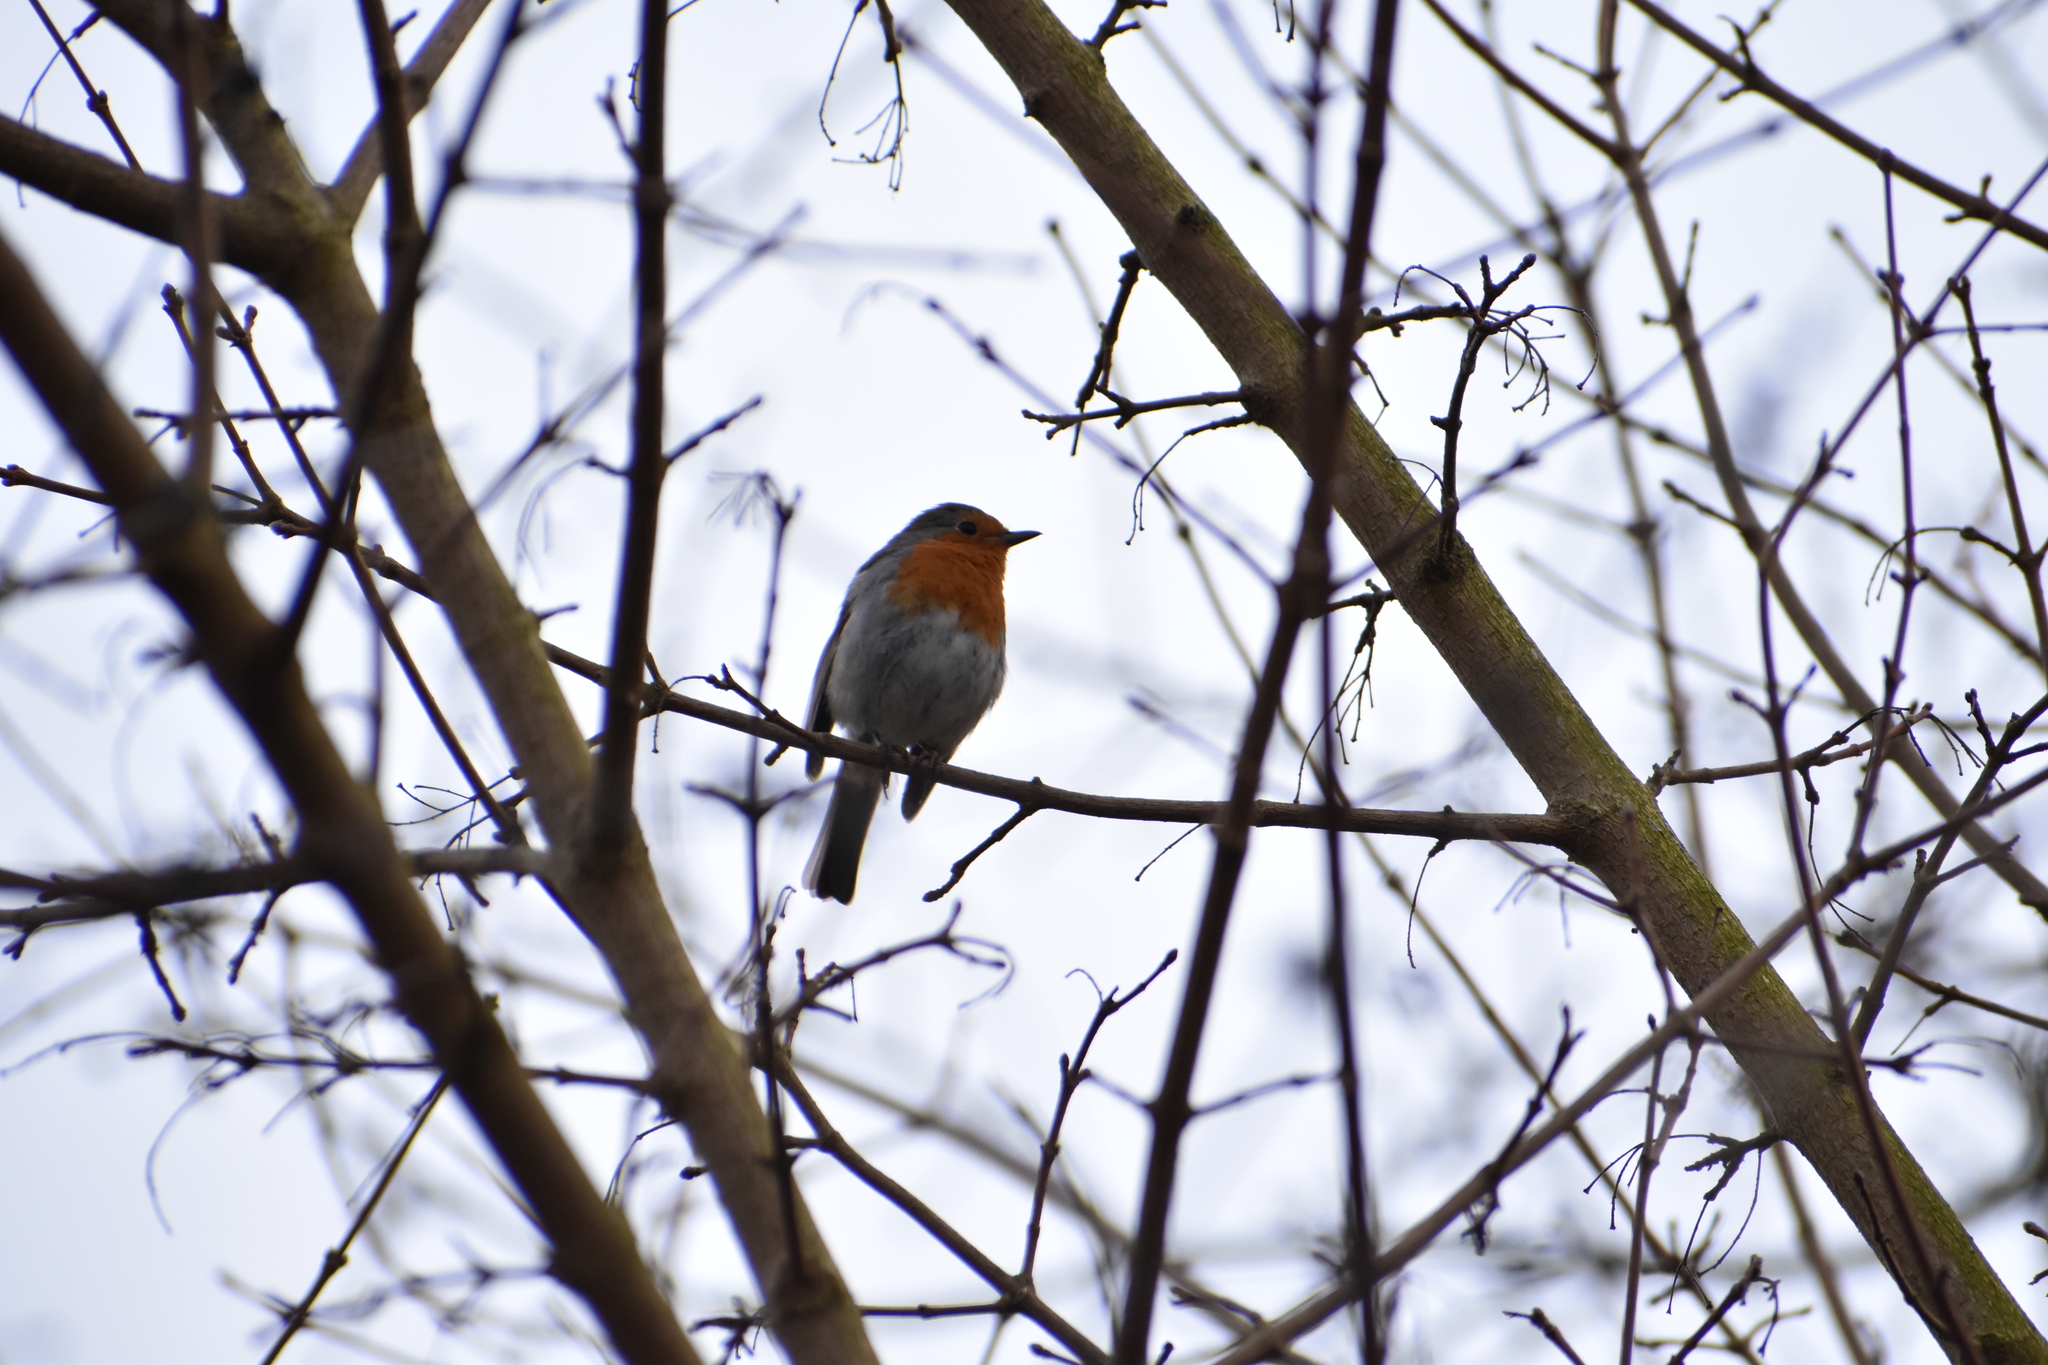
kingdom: Animalia
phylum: Chordata
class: Aves
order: Passeriformes
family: Muscicapidae
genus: Erithacus
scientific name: Erithacus rubecula
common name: European robin
